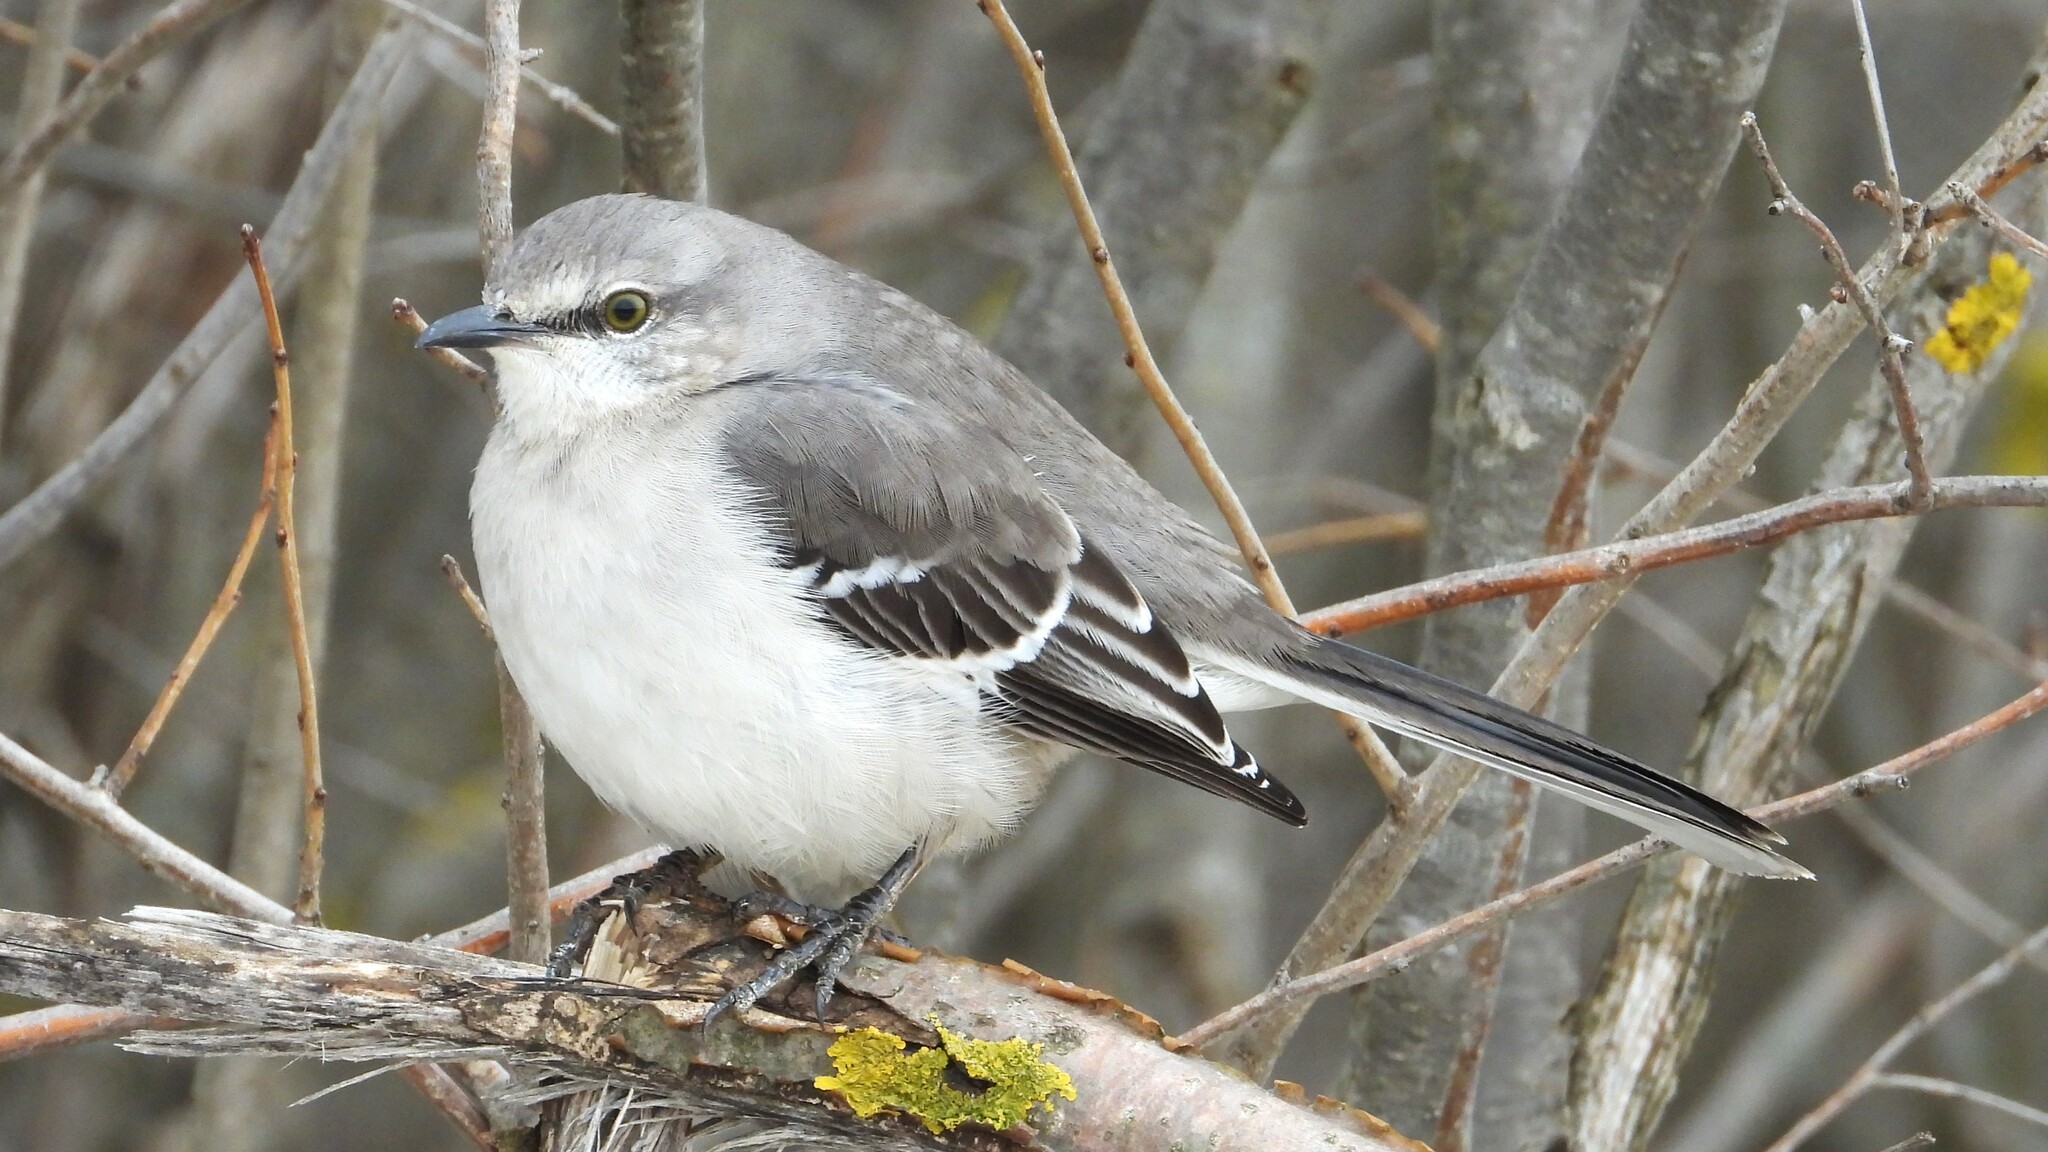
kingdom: Animalia
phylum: Chordata
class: Aves
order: Passeriformes
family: Mimidae
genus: Mimus
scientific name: Mimus polyglottos
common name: Northern mockingbird
